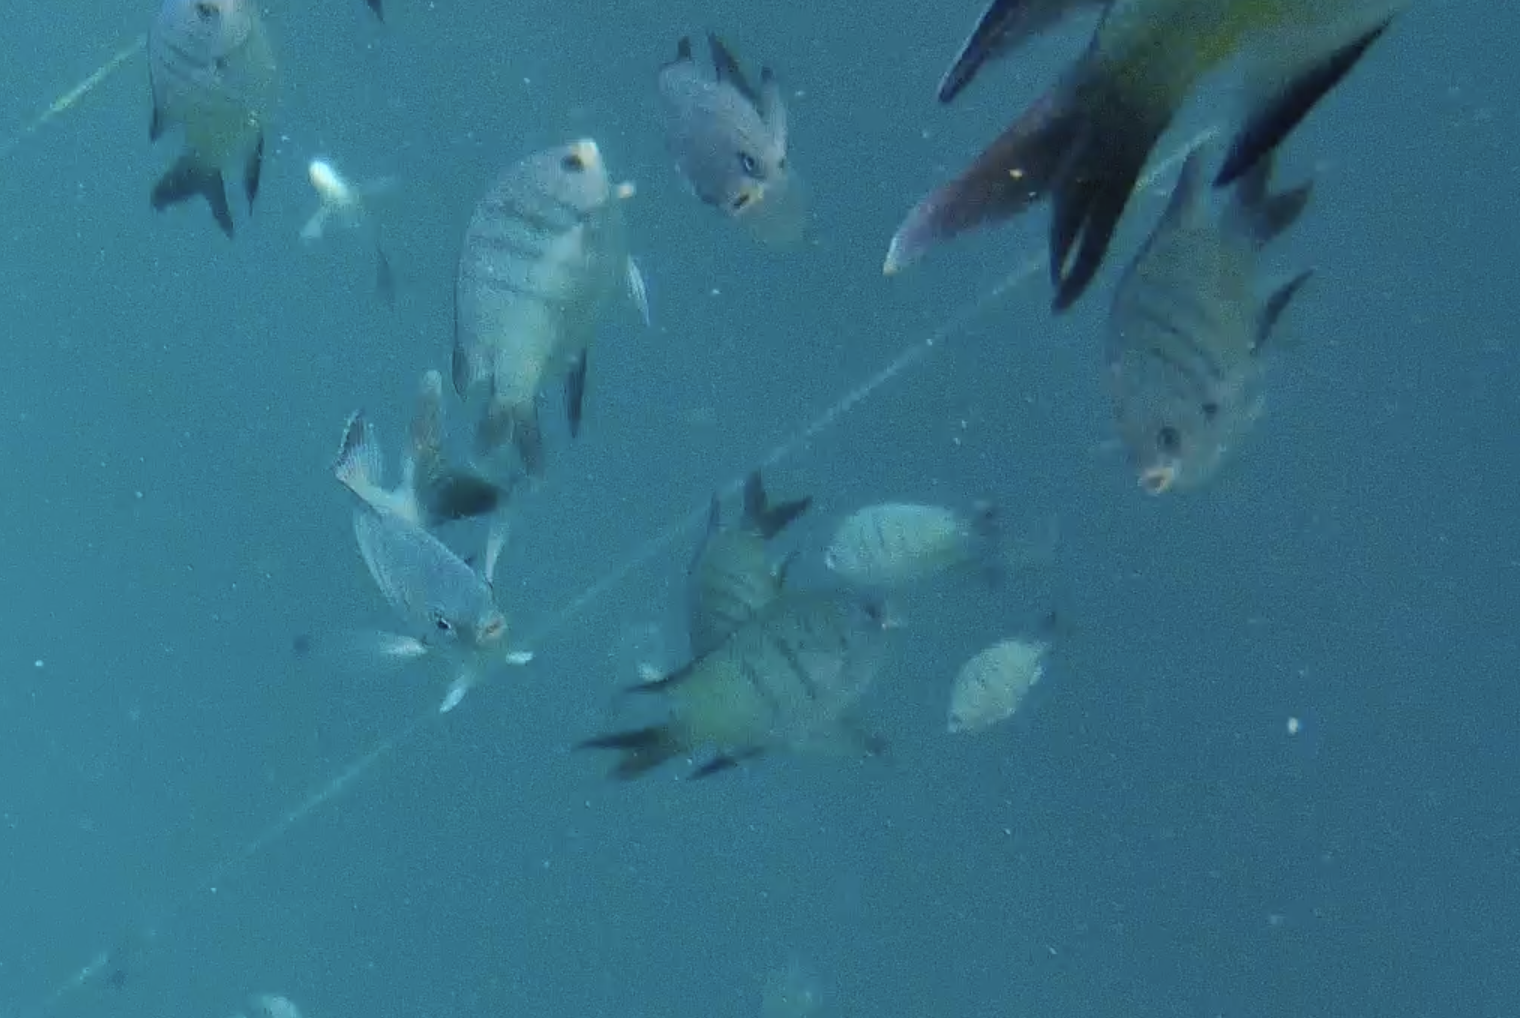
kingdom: Animalia
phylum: Chordata
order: Perciformes
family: Pomacentridae
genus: Abudefduf
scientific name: Abudefduf whitleyi
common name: Whitley's seargent
